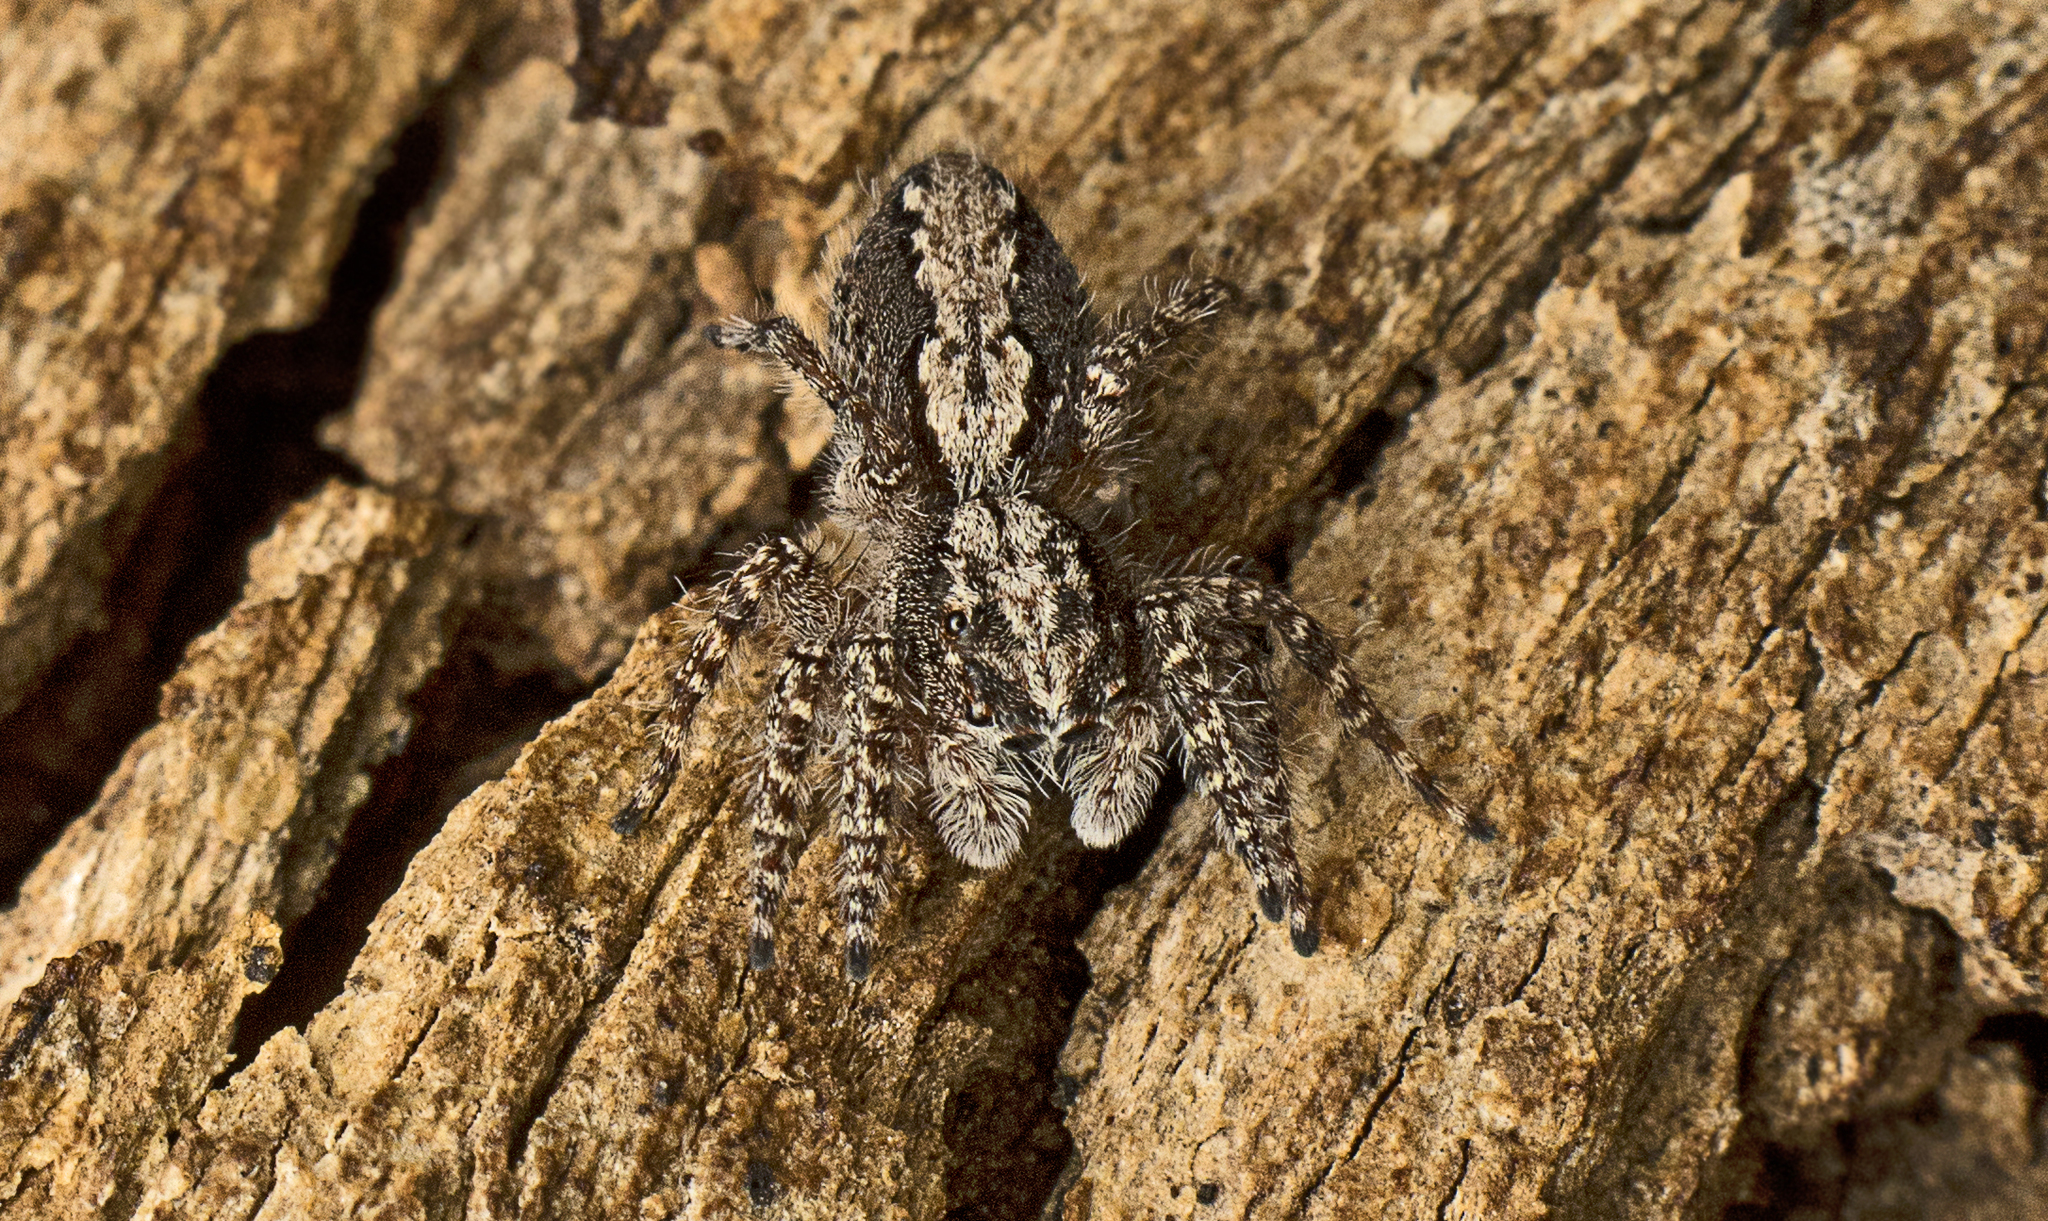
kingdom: Animalia
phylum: Arthropoda
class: Arachnida
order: Araneae
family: Salticidae
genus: Clynotis
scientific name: Clynotis severus
